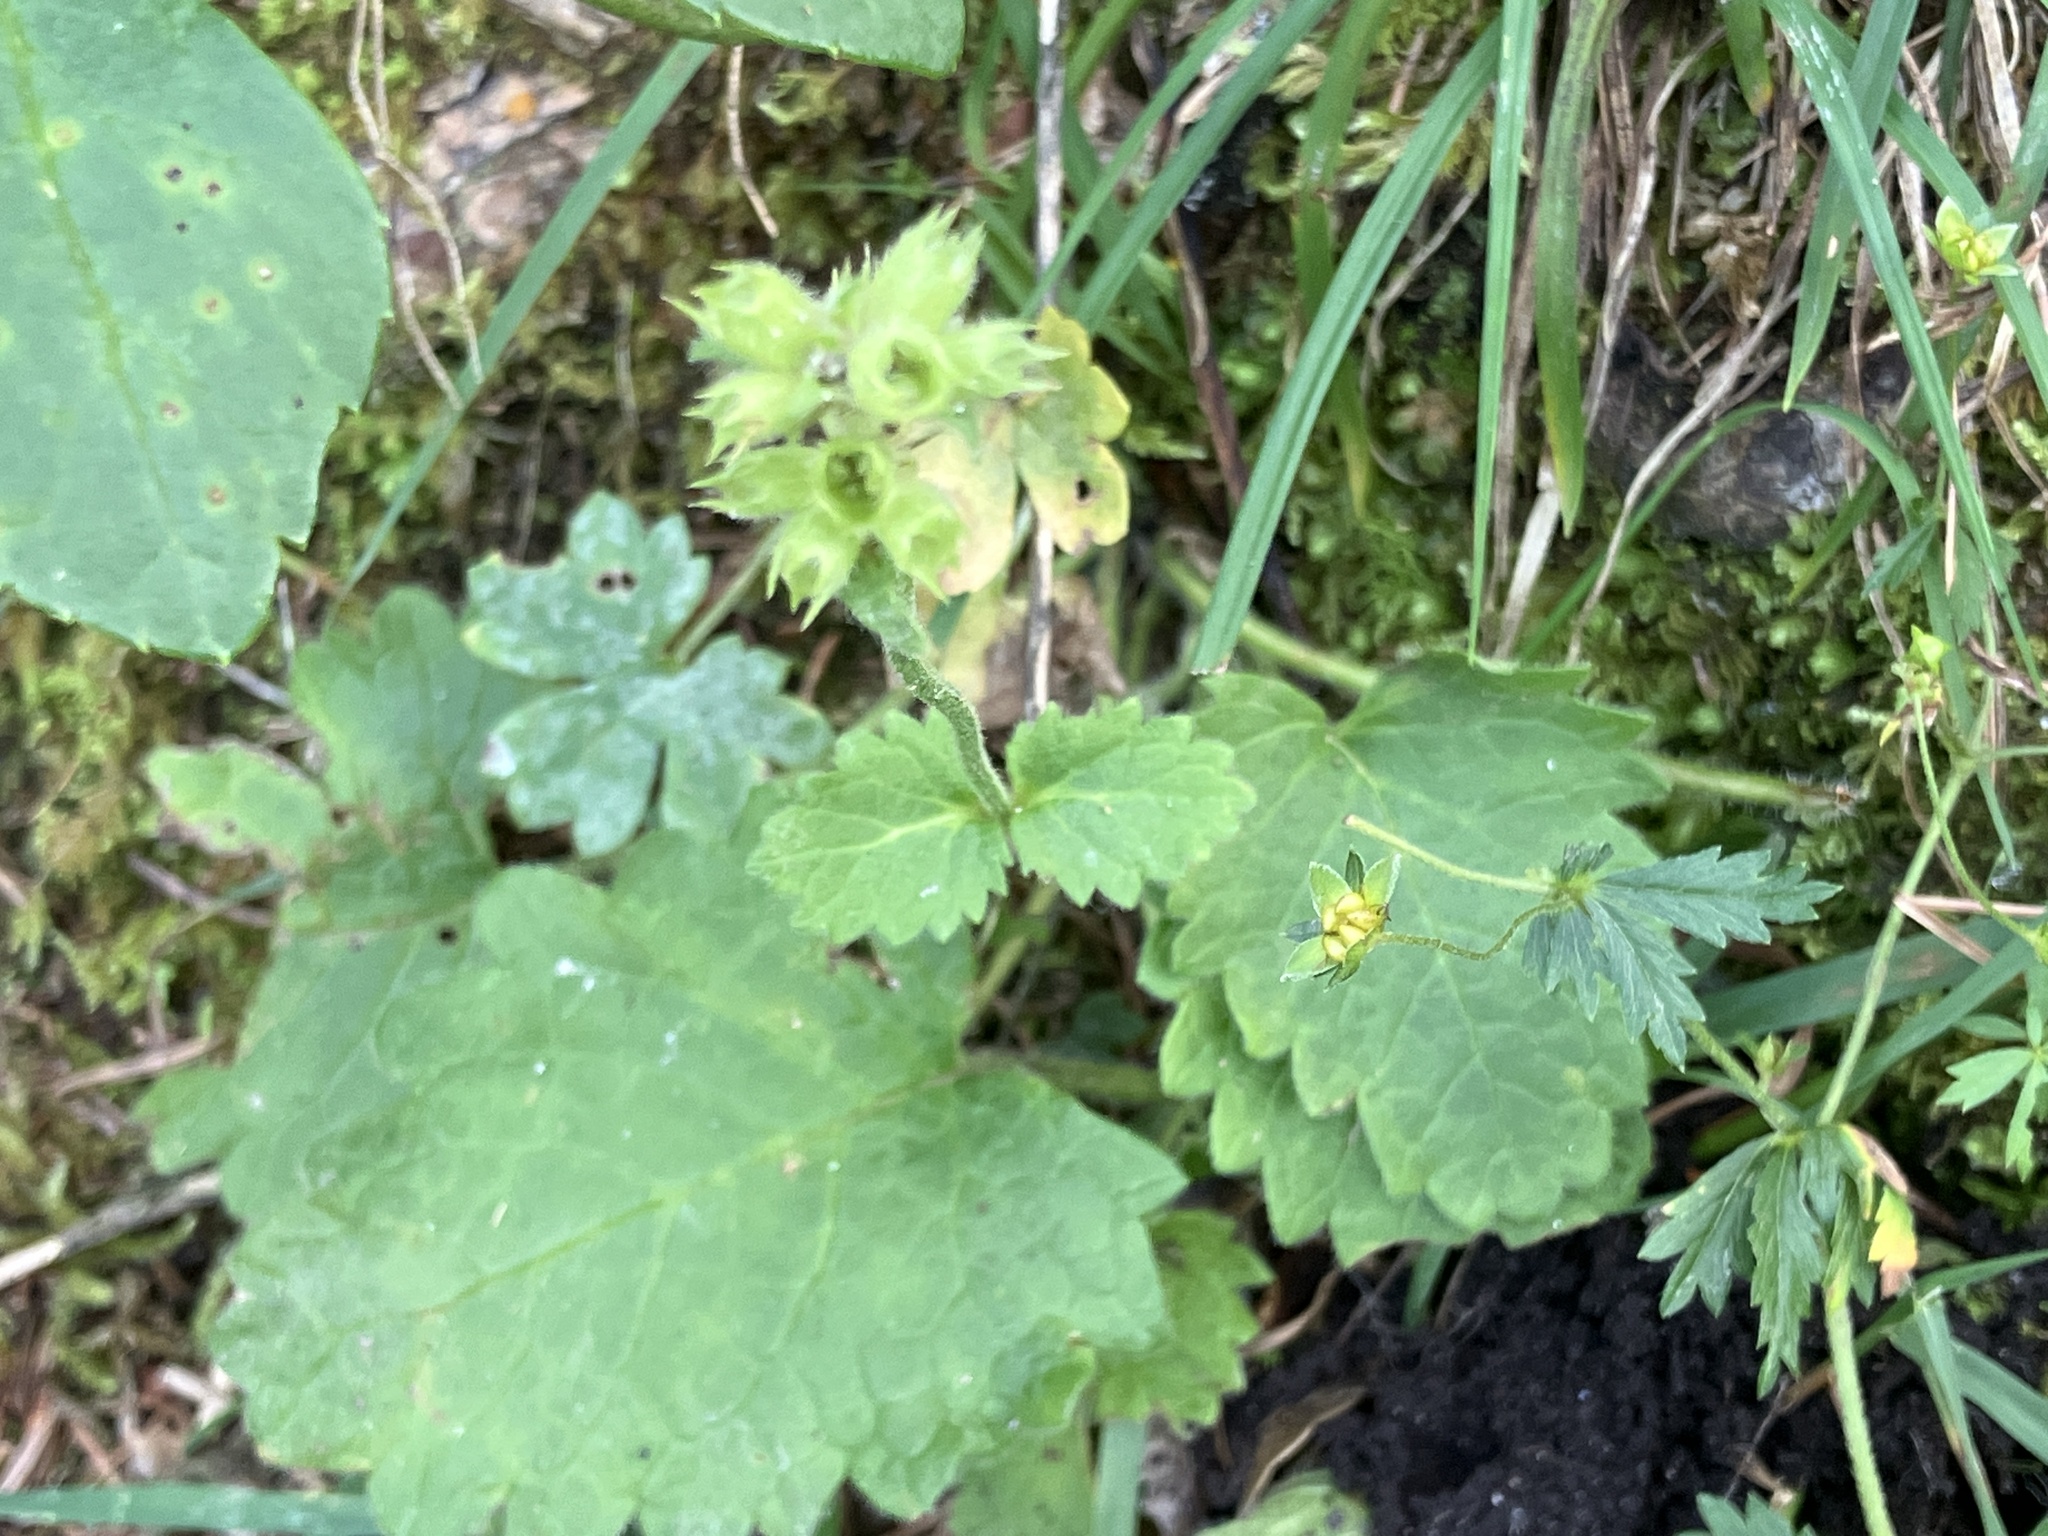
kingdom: Plantae
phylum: Tracheophyta
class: Magnoliopsida
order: Lamiales
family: Lamiaceae
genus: Betonica
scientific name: Betonica alopecuros
